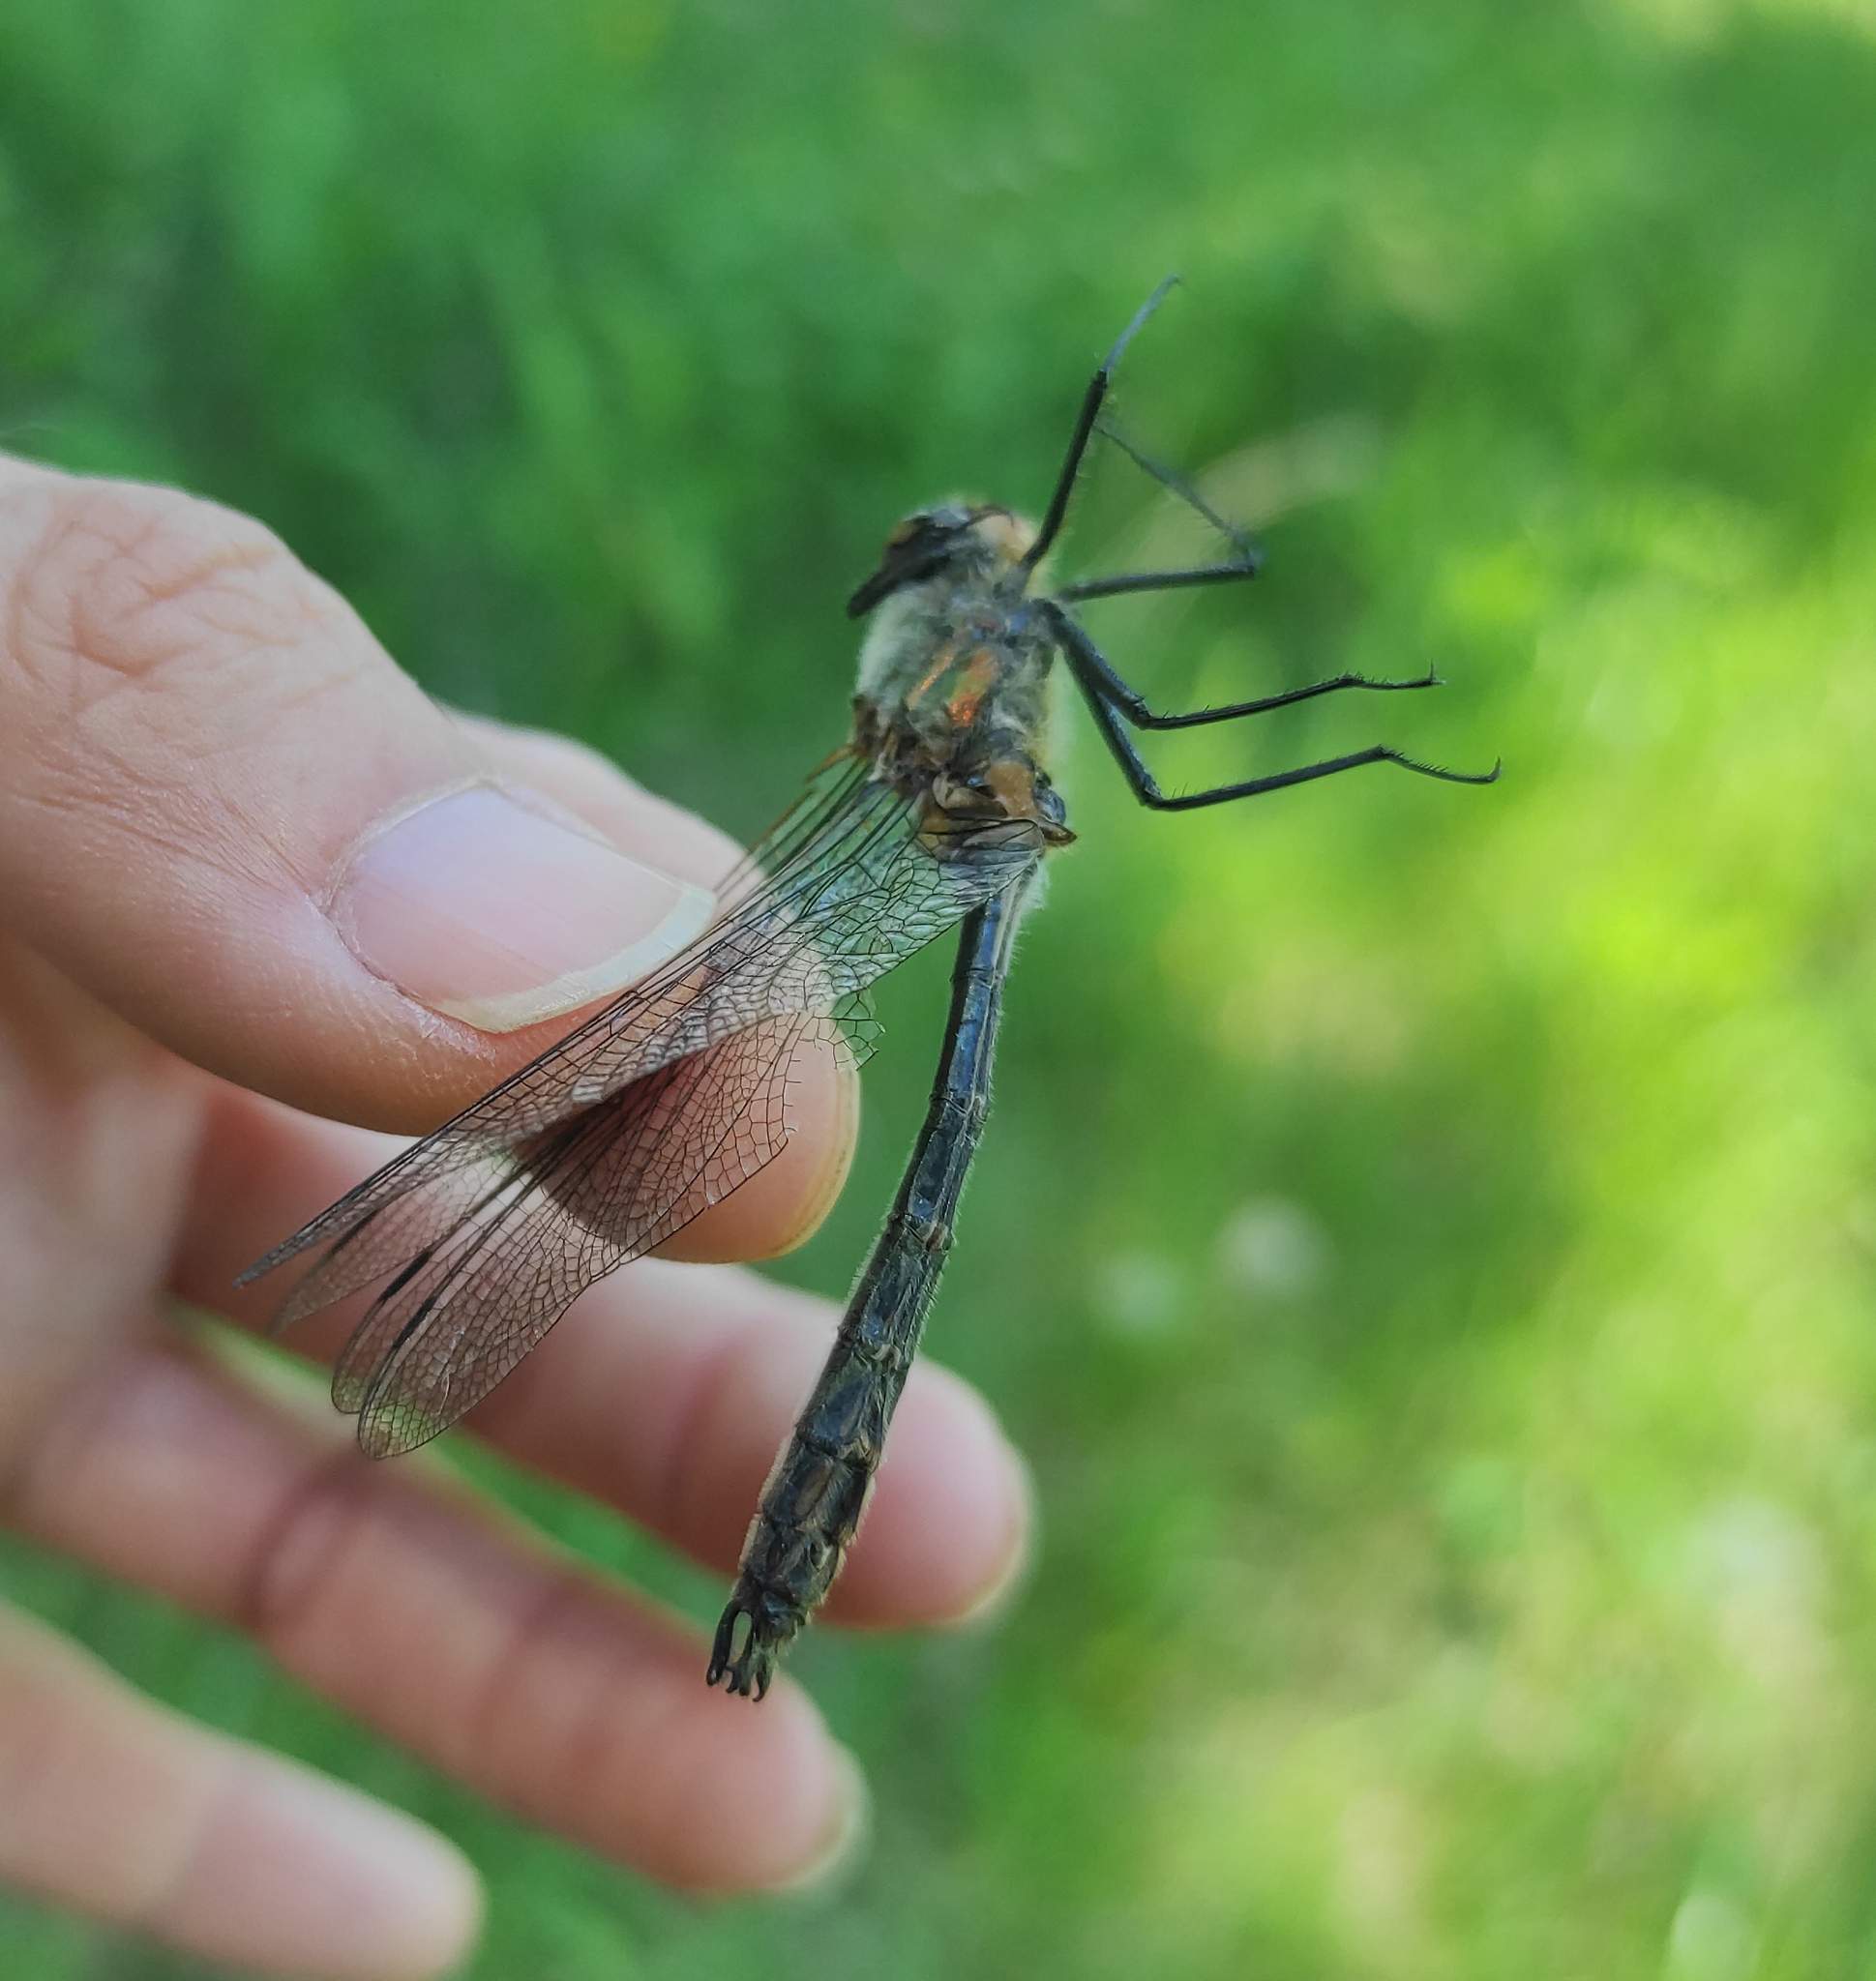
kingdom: Animalia
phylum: Arthropoda
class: Insecta
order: Odonata
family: Corduliidae
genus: Cordulia
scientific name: Cordulia aenea
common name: Downy emerald
